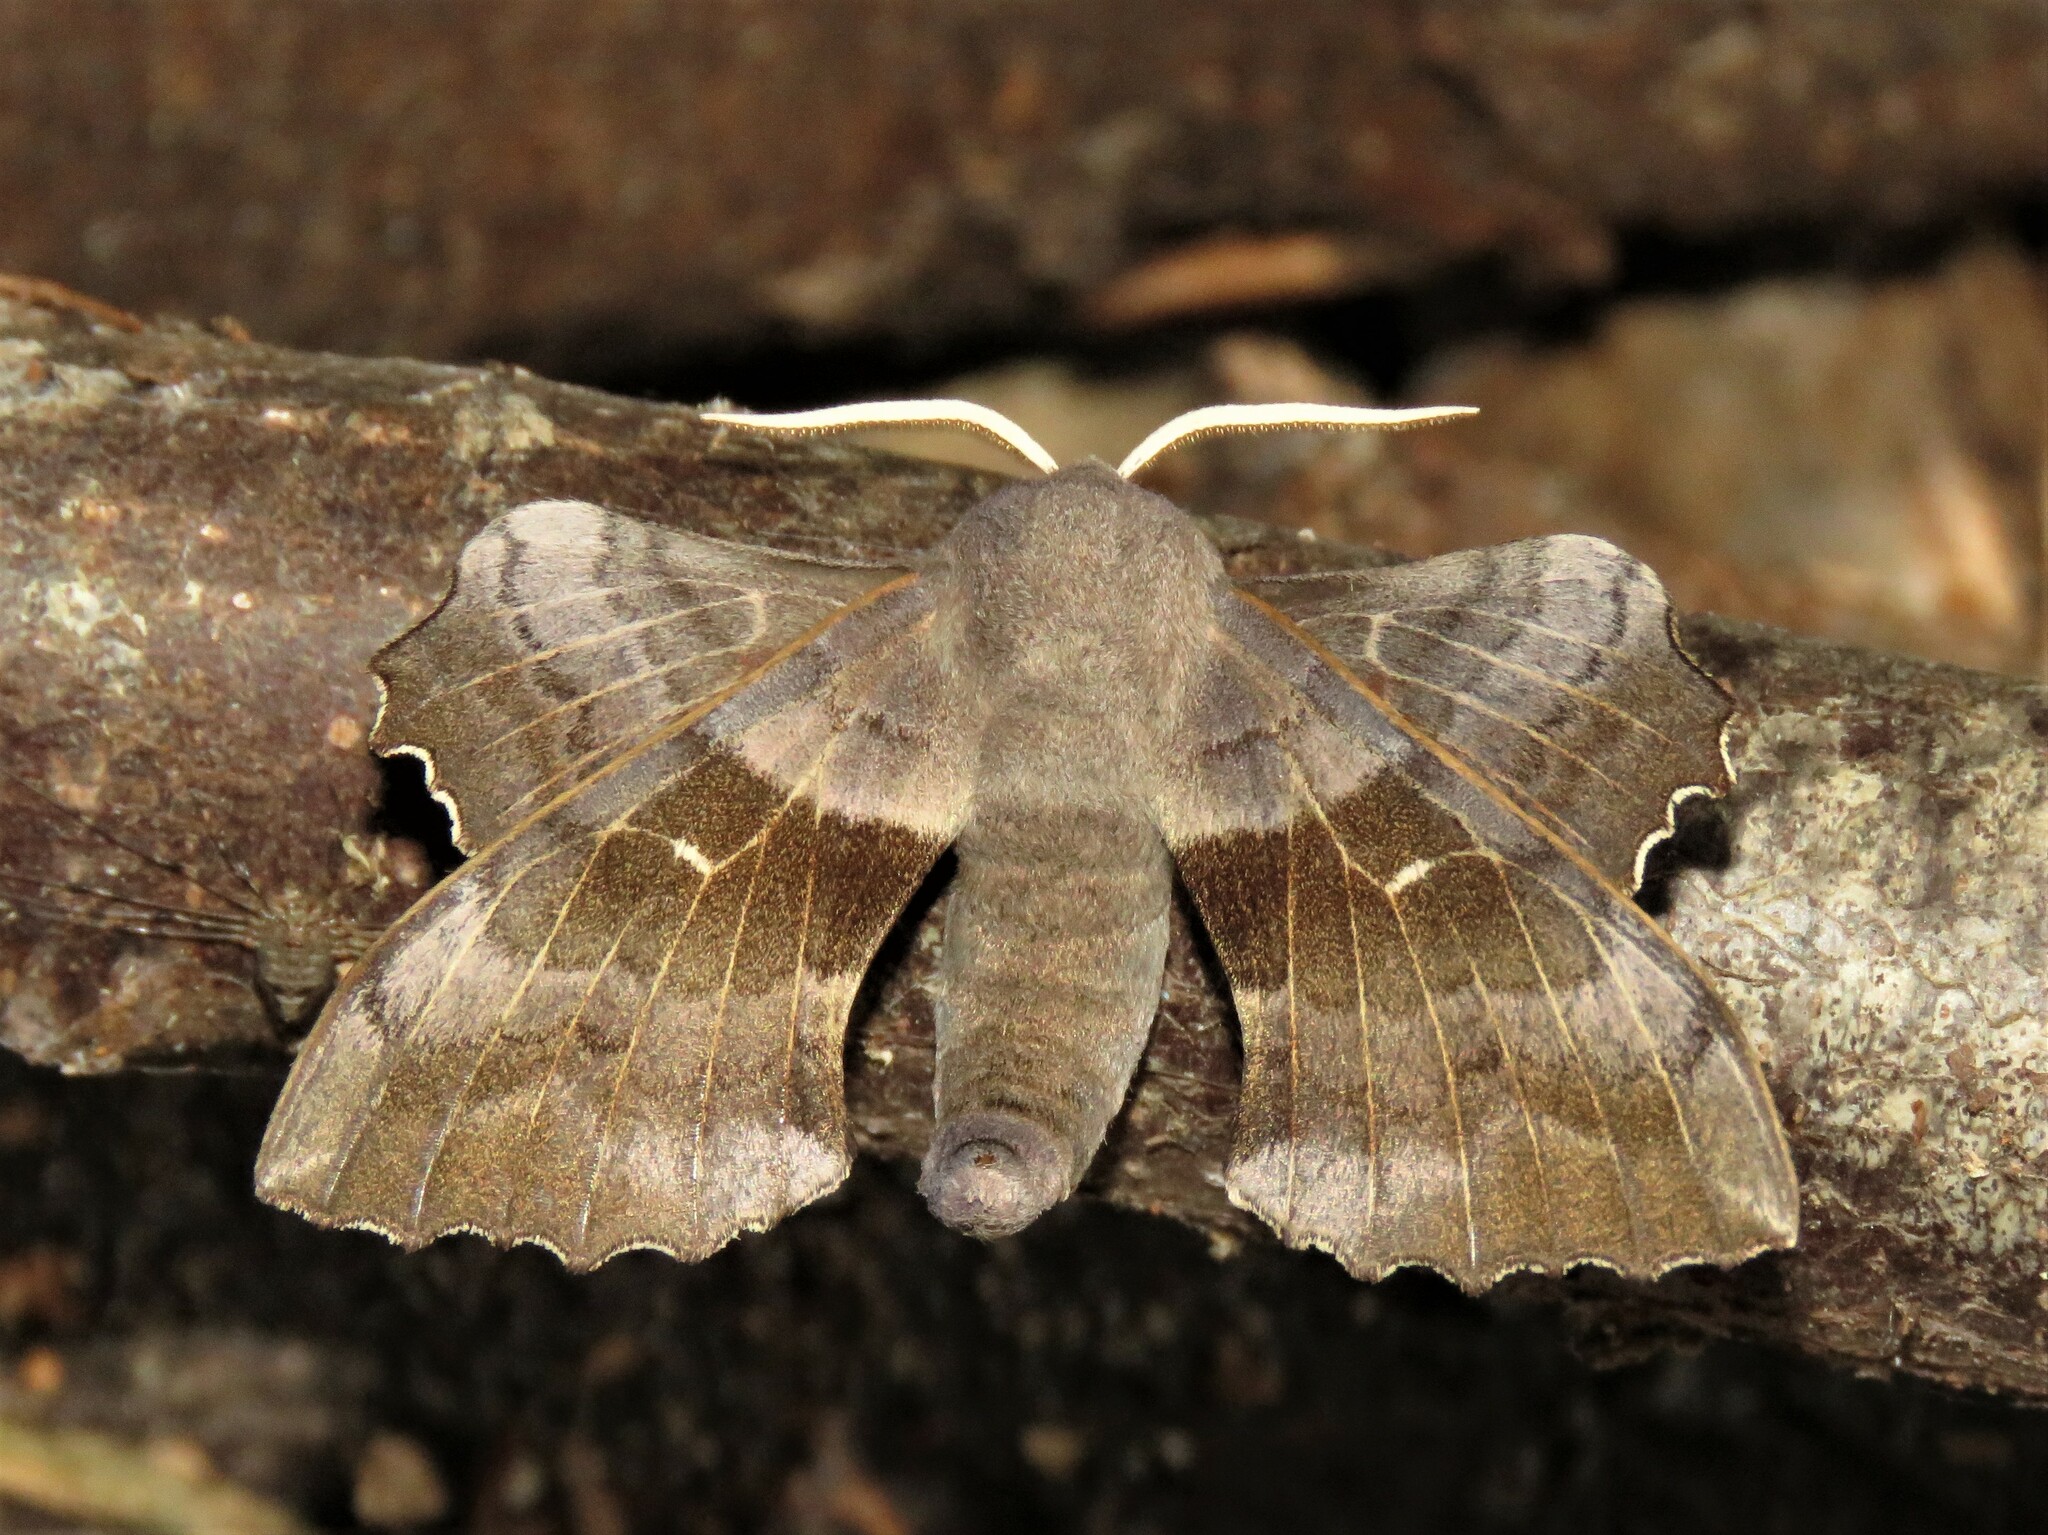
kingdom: Animalia
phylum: Arthropoda
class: Insecta
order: Lepidoptera
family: Sphingidae
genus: Laothoe
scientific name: Laothoe populi
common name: Poplar hawk-moth
